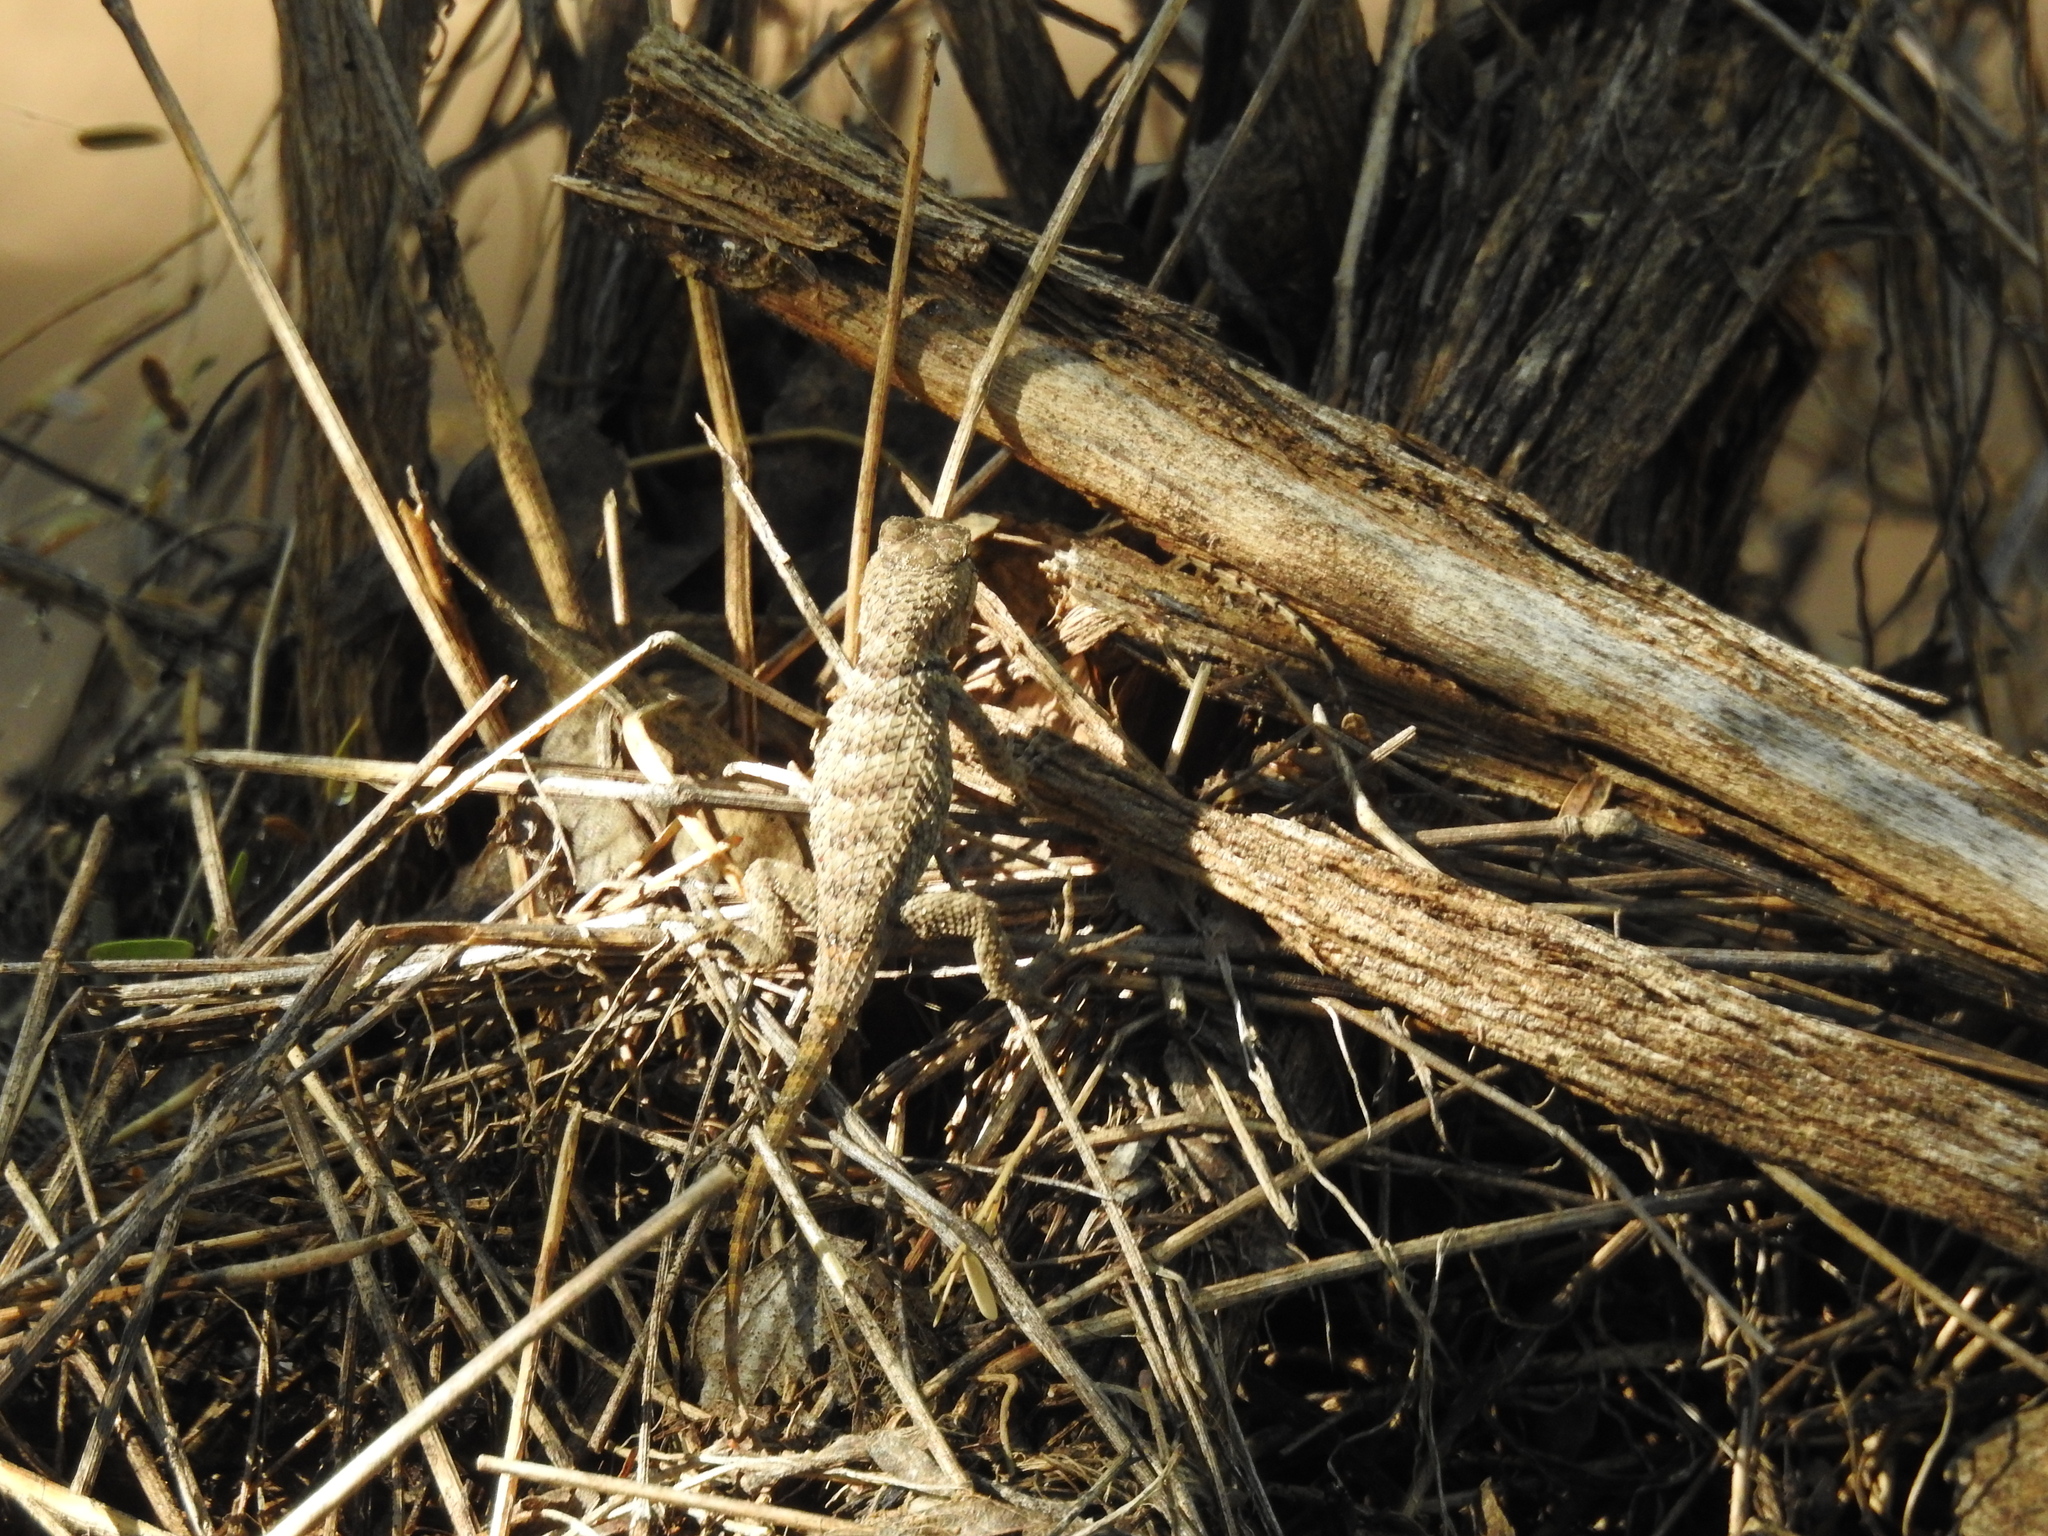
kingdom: Animalia
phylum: Chordata
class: Squamata
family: Phrynosomatidae
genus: Sceloporus
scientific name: Sceloporus magister
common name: Desert spiny lizard
